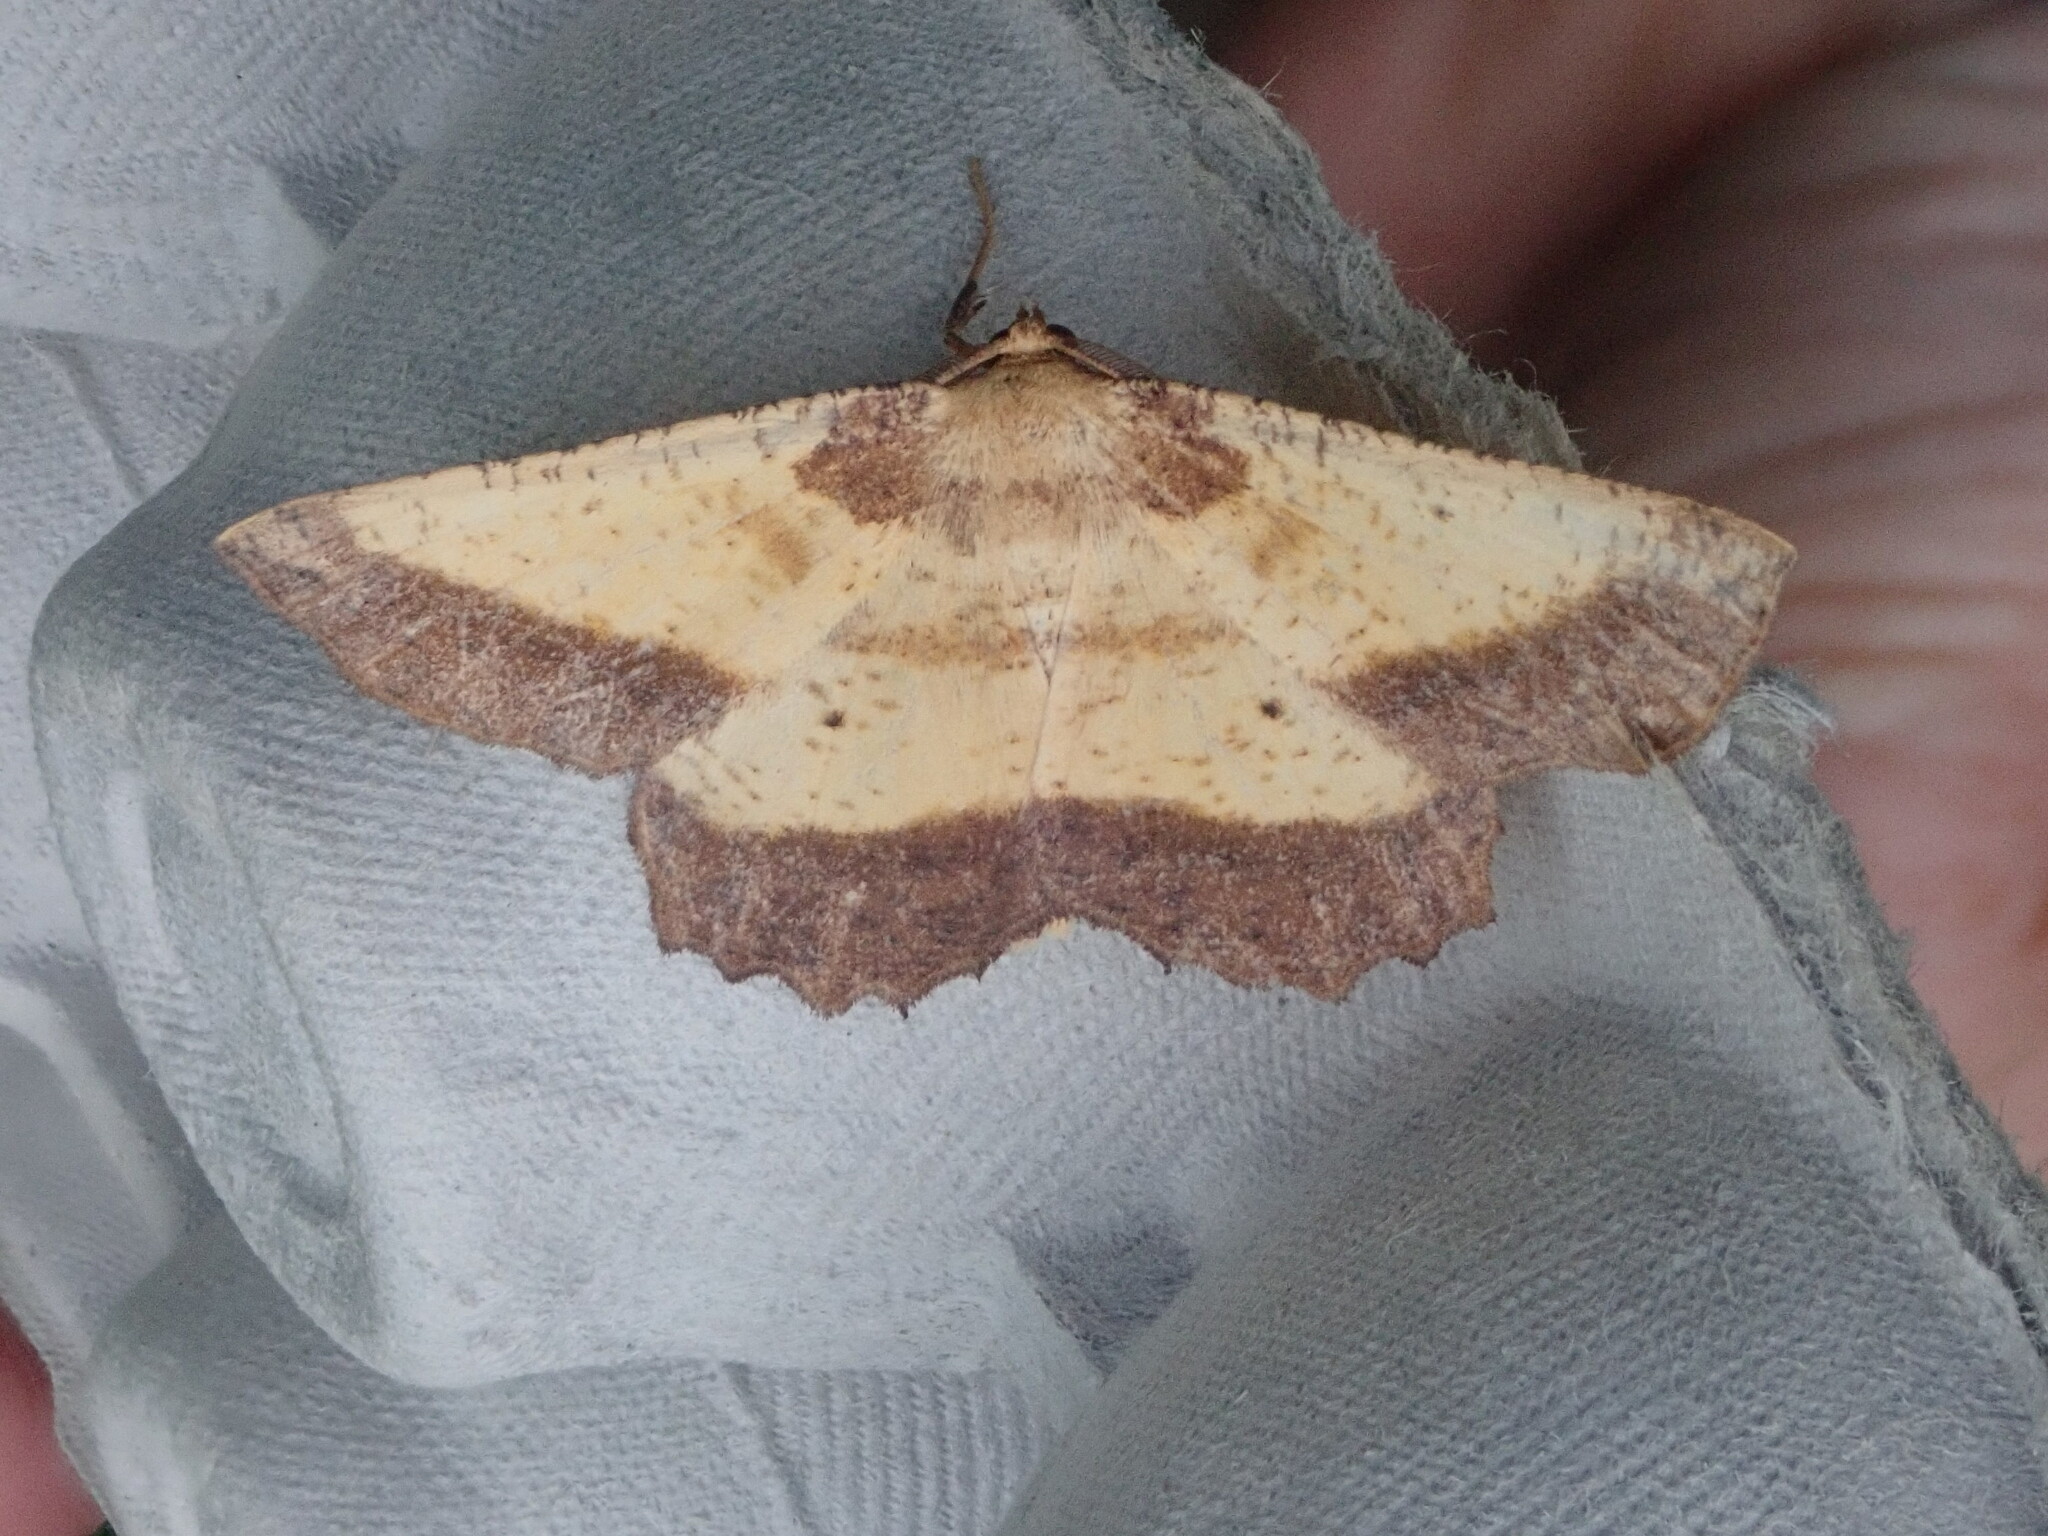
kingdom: Animalia
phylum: Arthropoda
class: Insecta
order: Lepidoptera
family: Geometridae
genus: Euchlaena
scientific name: Euchlaena serrata
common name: Saw wing
